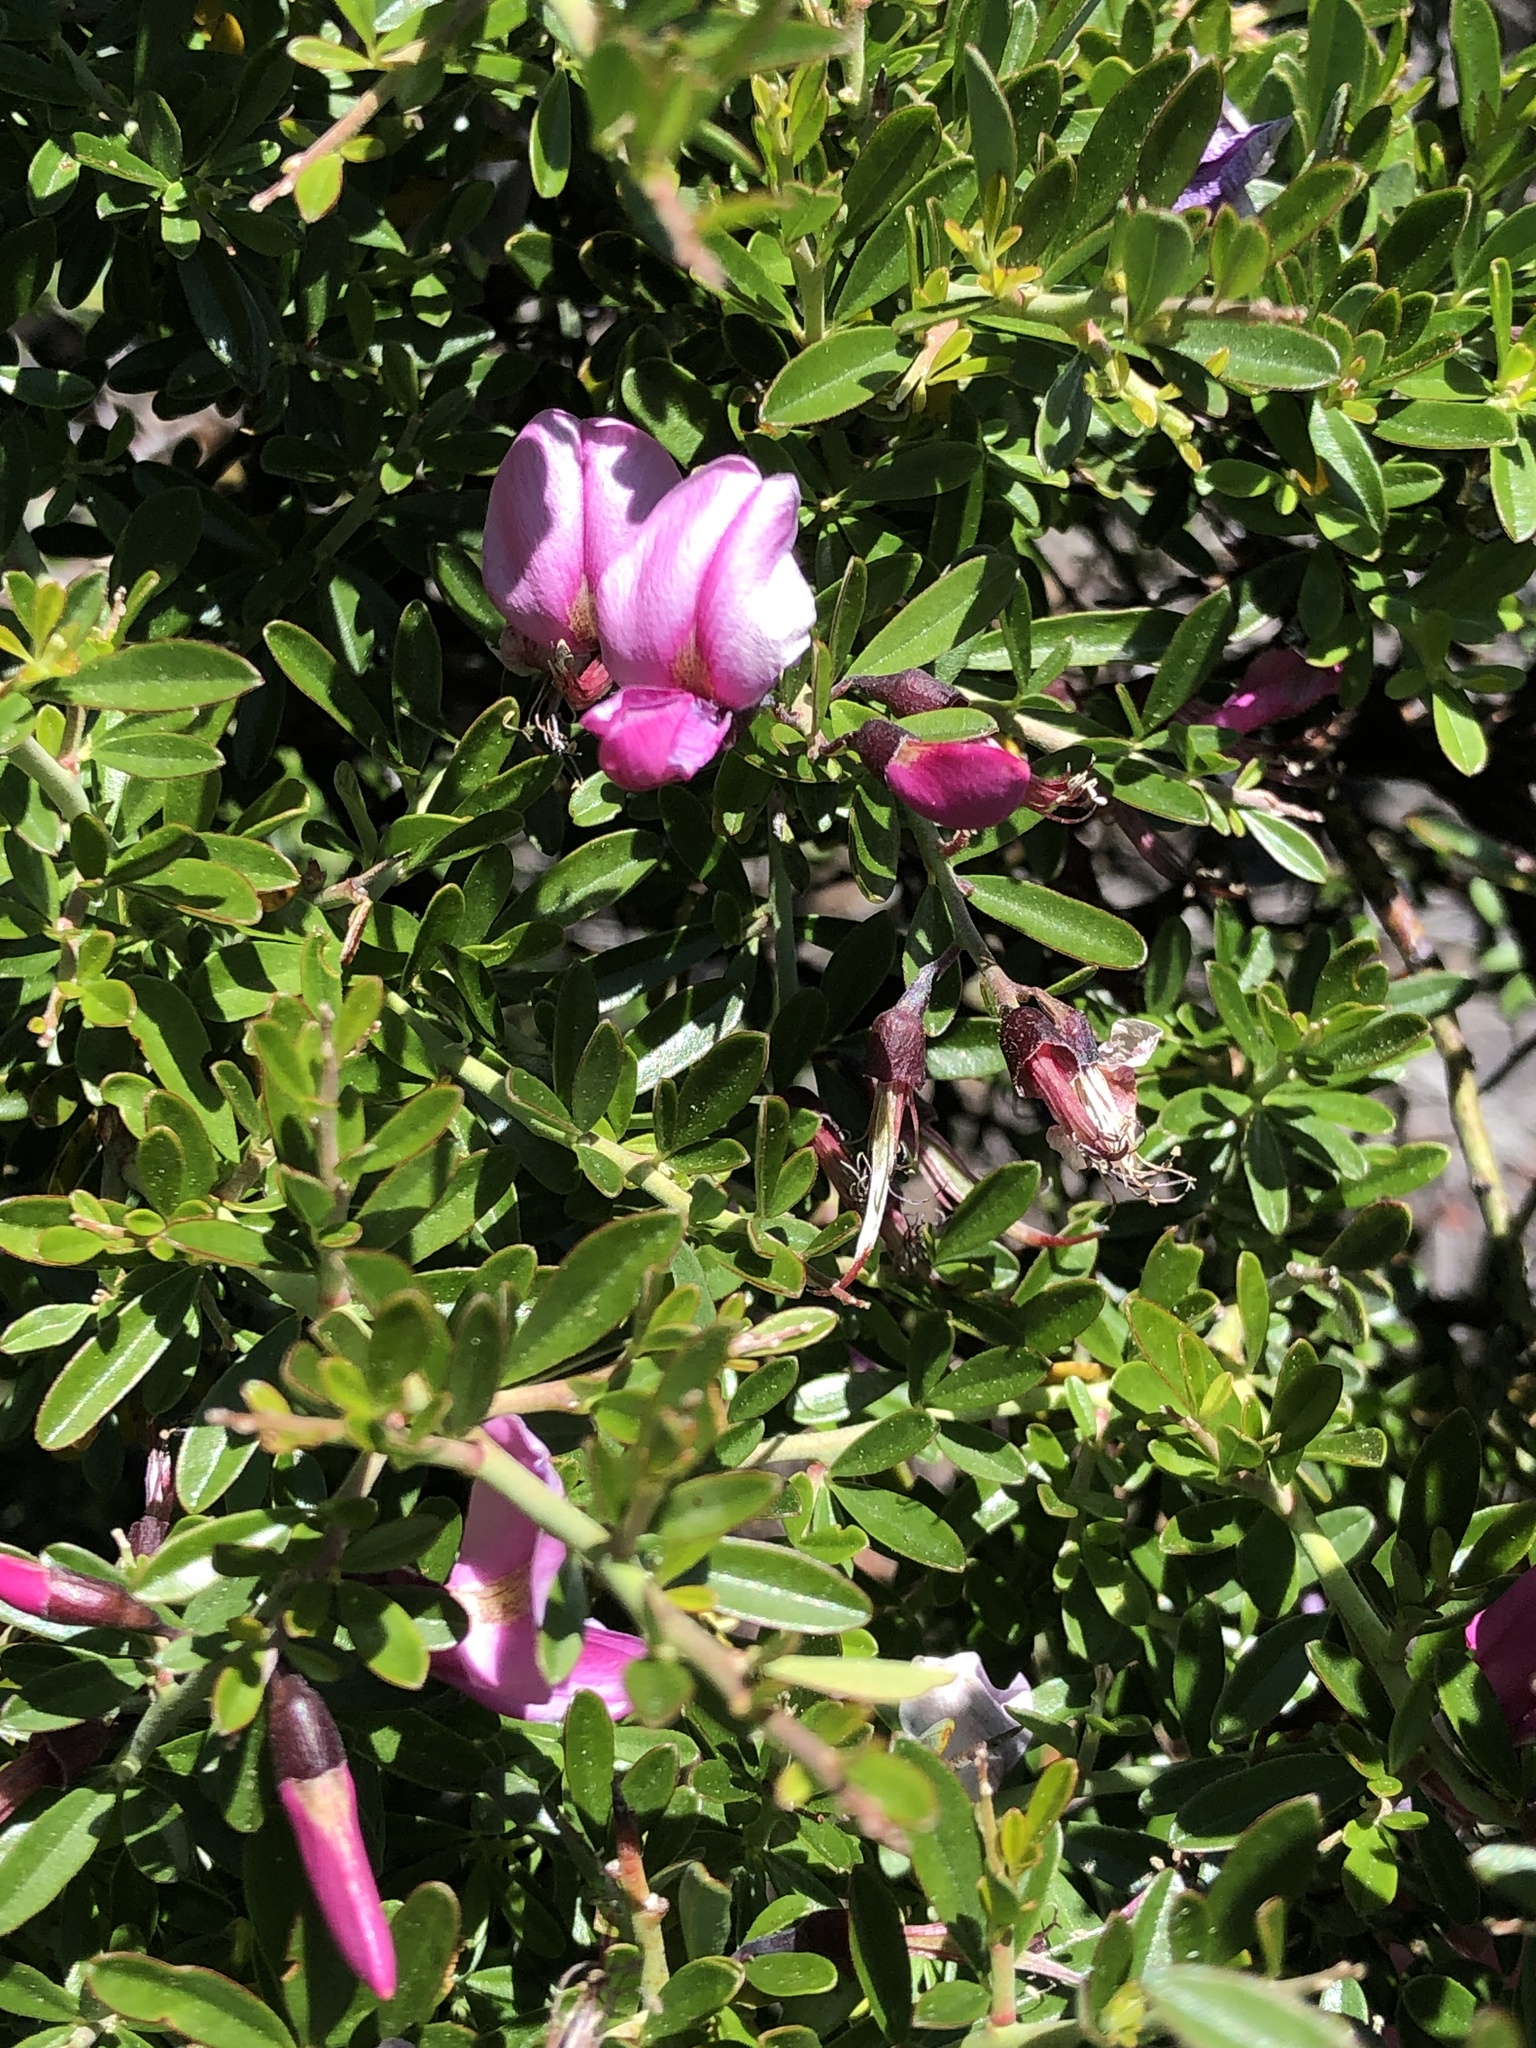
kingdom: Plantae
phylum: Tracheophyta
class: Magnoliopsida
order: Fabales
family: Fabaceae
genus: Pickeringia
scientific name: Pickeringia montana
